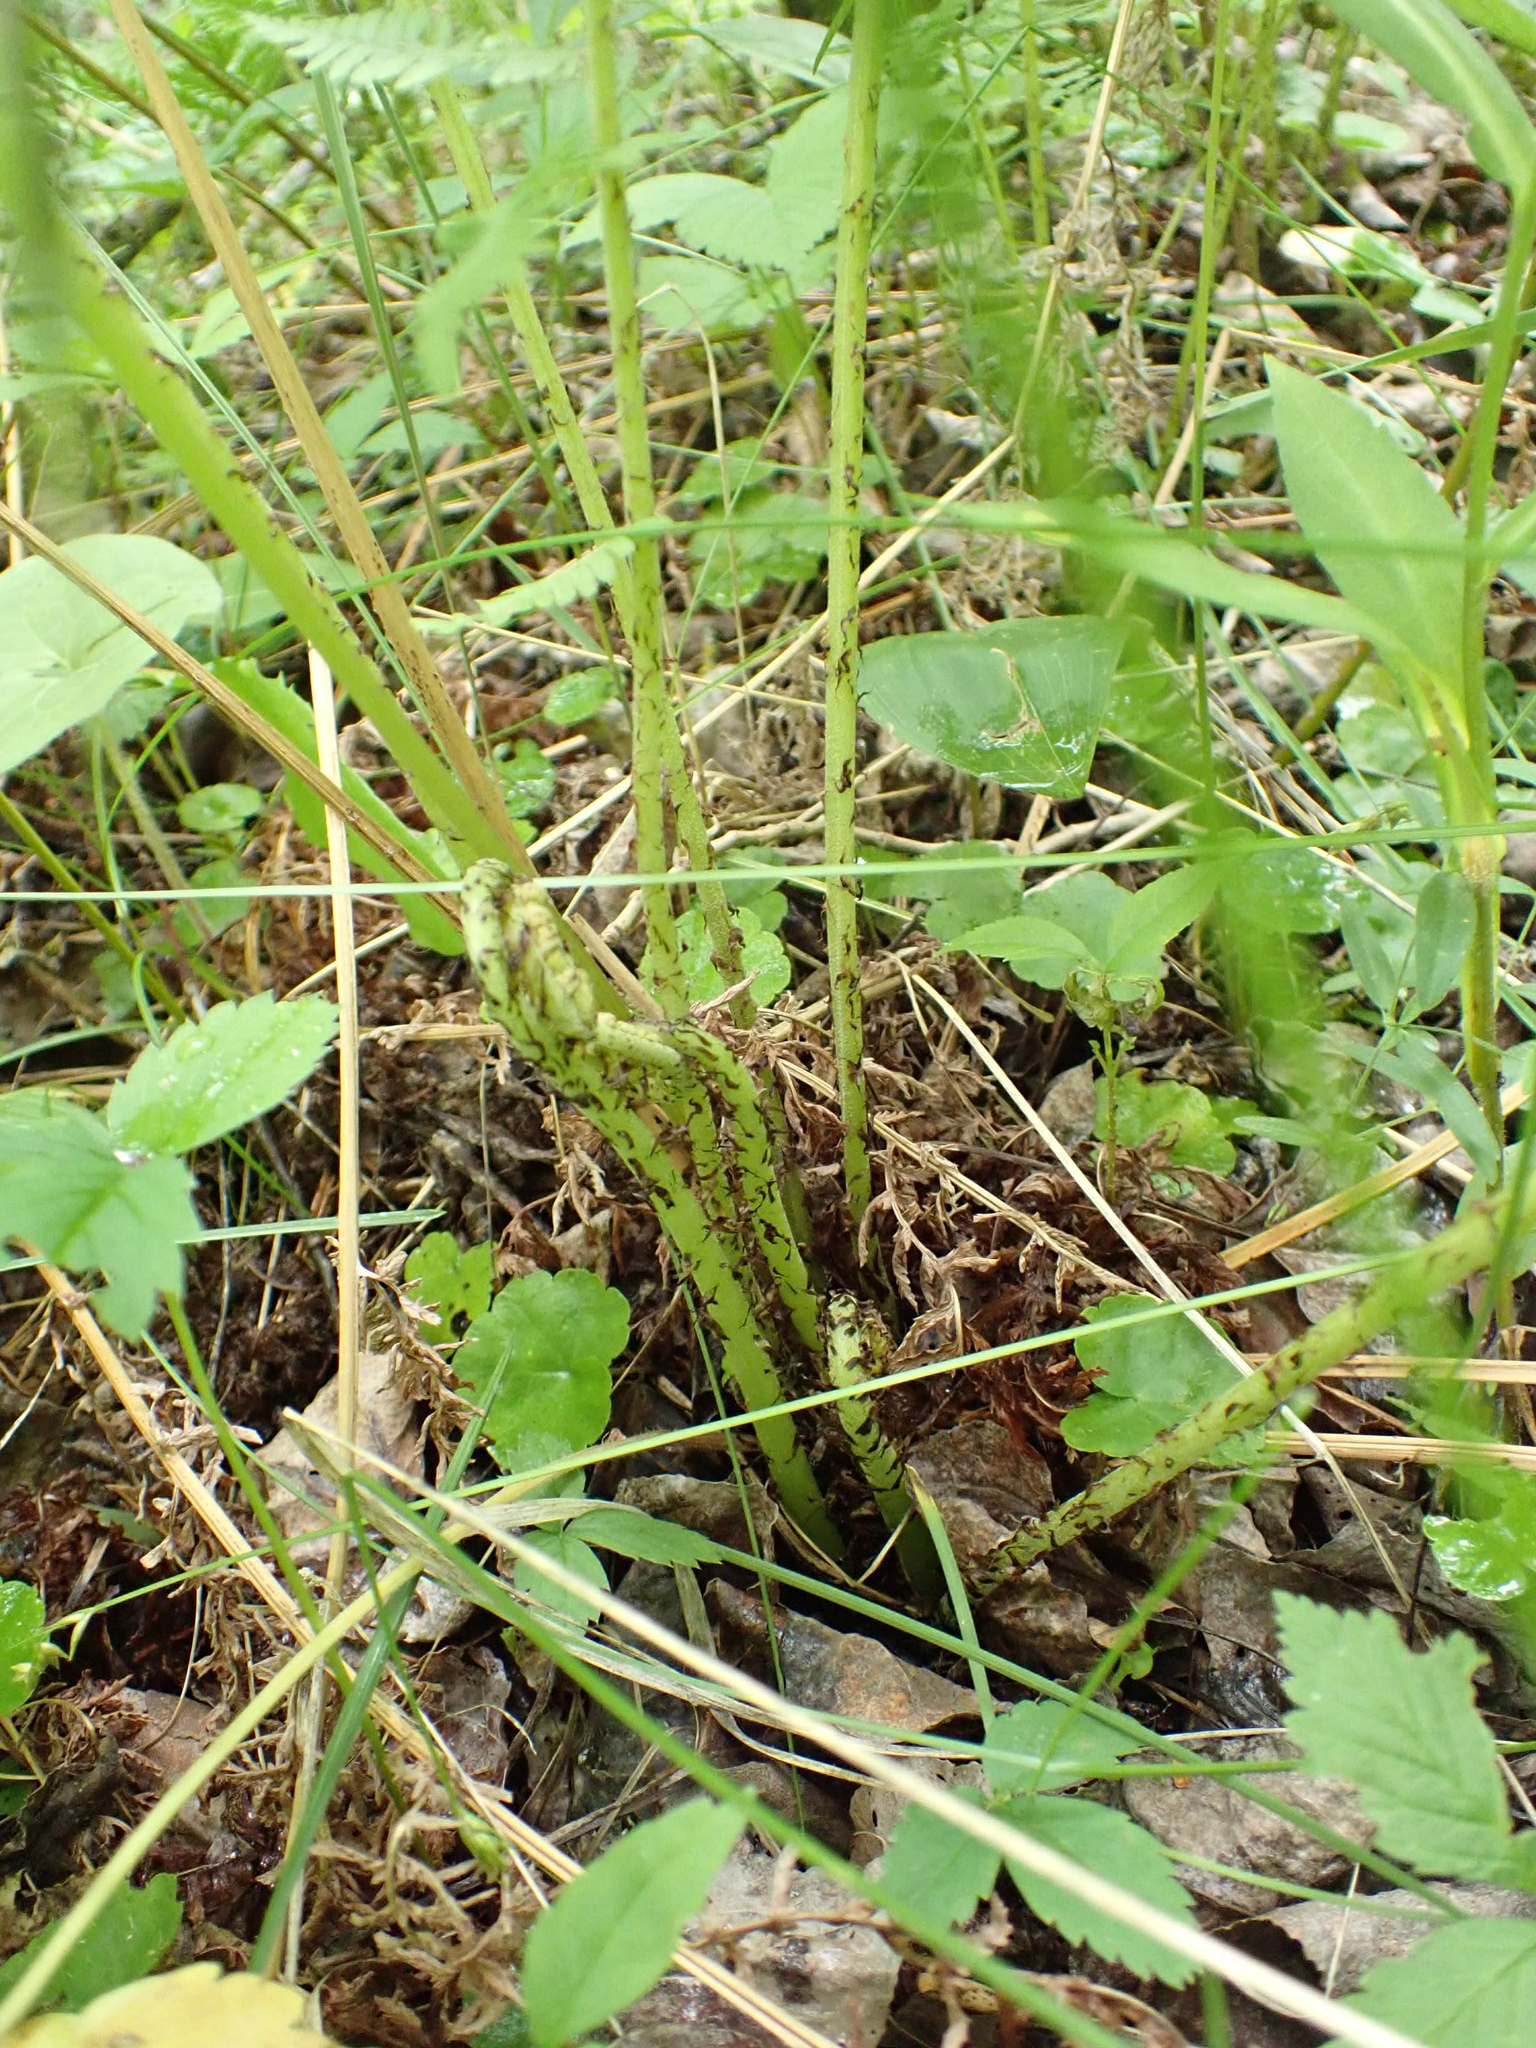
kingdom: Plantae
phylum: Tracheophyta
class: Polypodiopsida
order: Polypodiales
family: Athyriaceae
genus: Athyrium
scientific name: Athyrium angustum
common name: Northern lady fern
